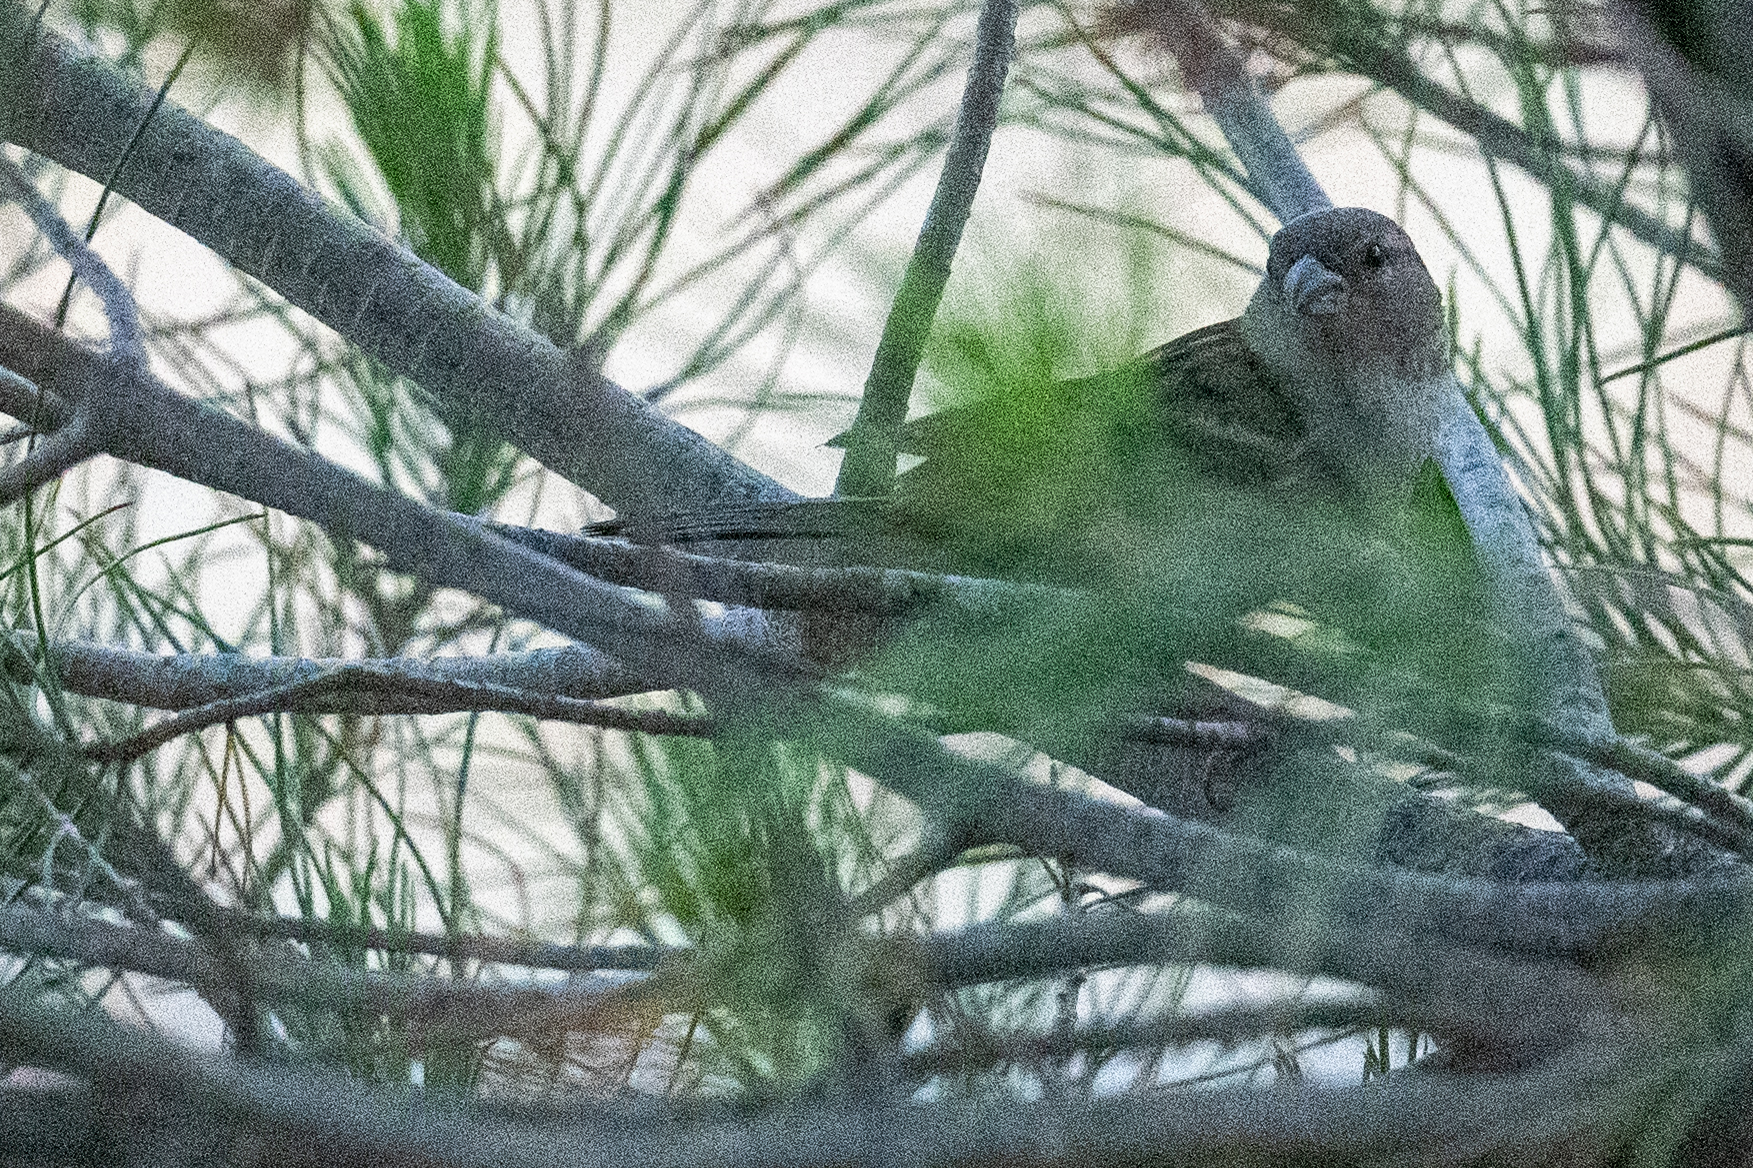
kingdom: Animalia
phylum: Chordata
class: Aves
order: Passeriformes
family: Passeridae
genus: Passer
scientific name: Passer domesticus
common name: House sparrow
